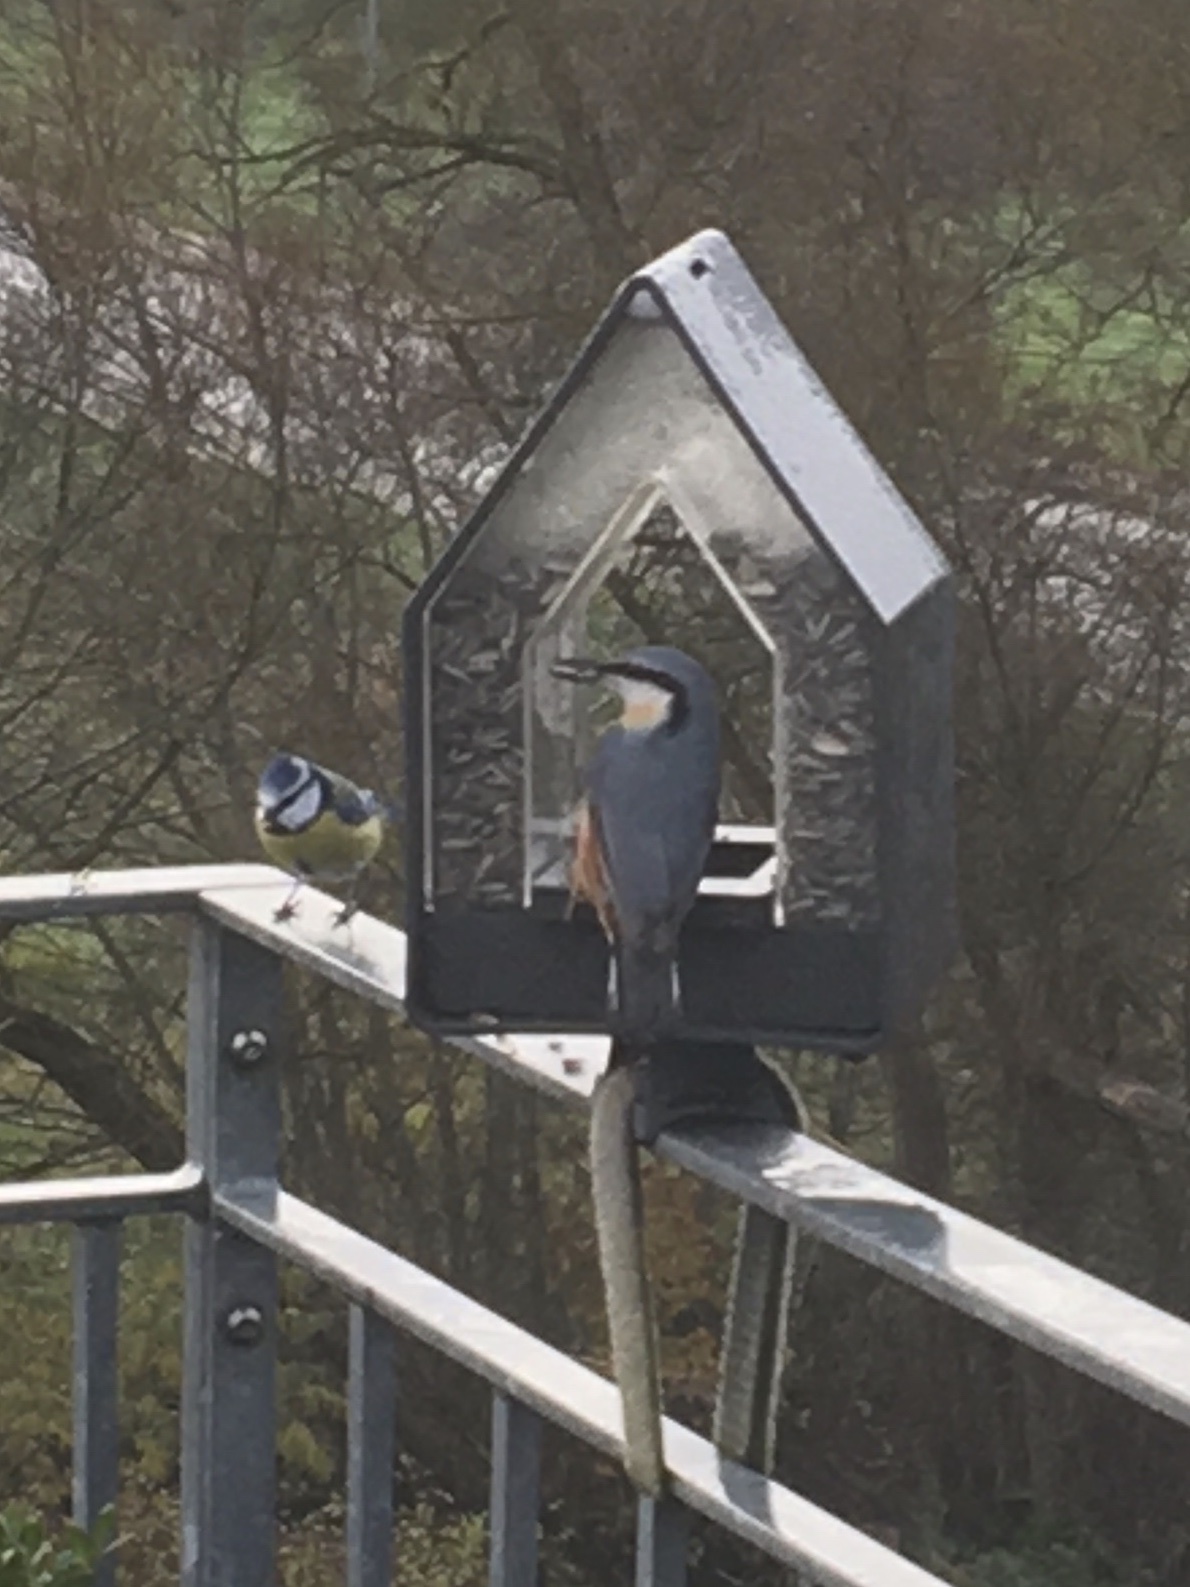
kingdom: Animalia
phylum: Chordata
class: Aves
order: Passeriformes
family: Sittidae
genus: Sitta
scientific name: Sitta europaea
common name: Eurasian nuthatch
